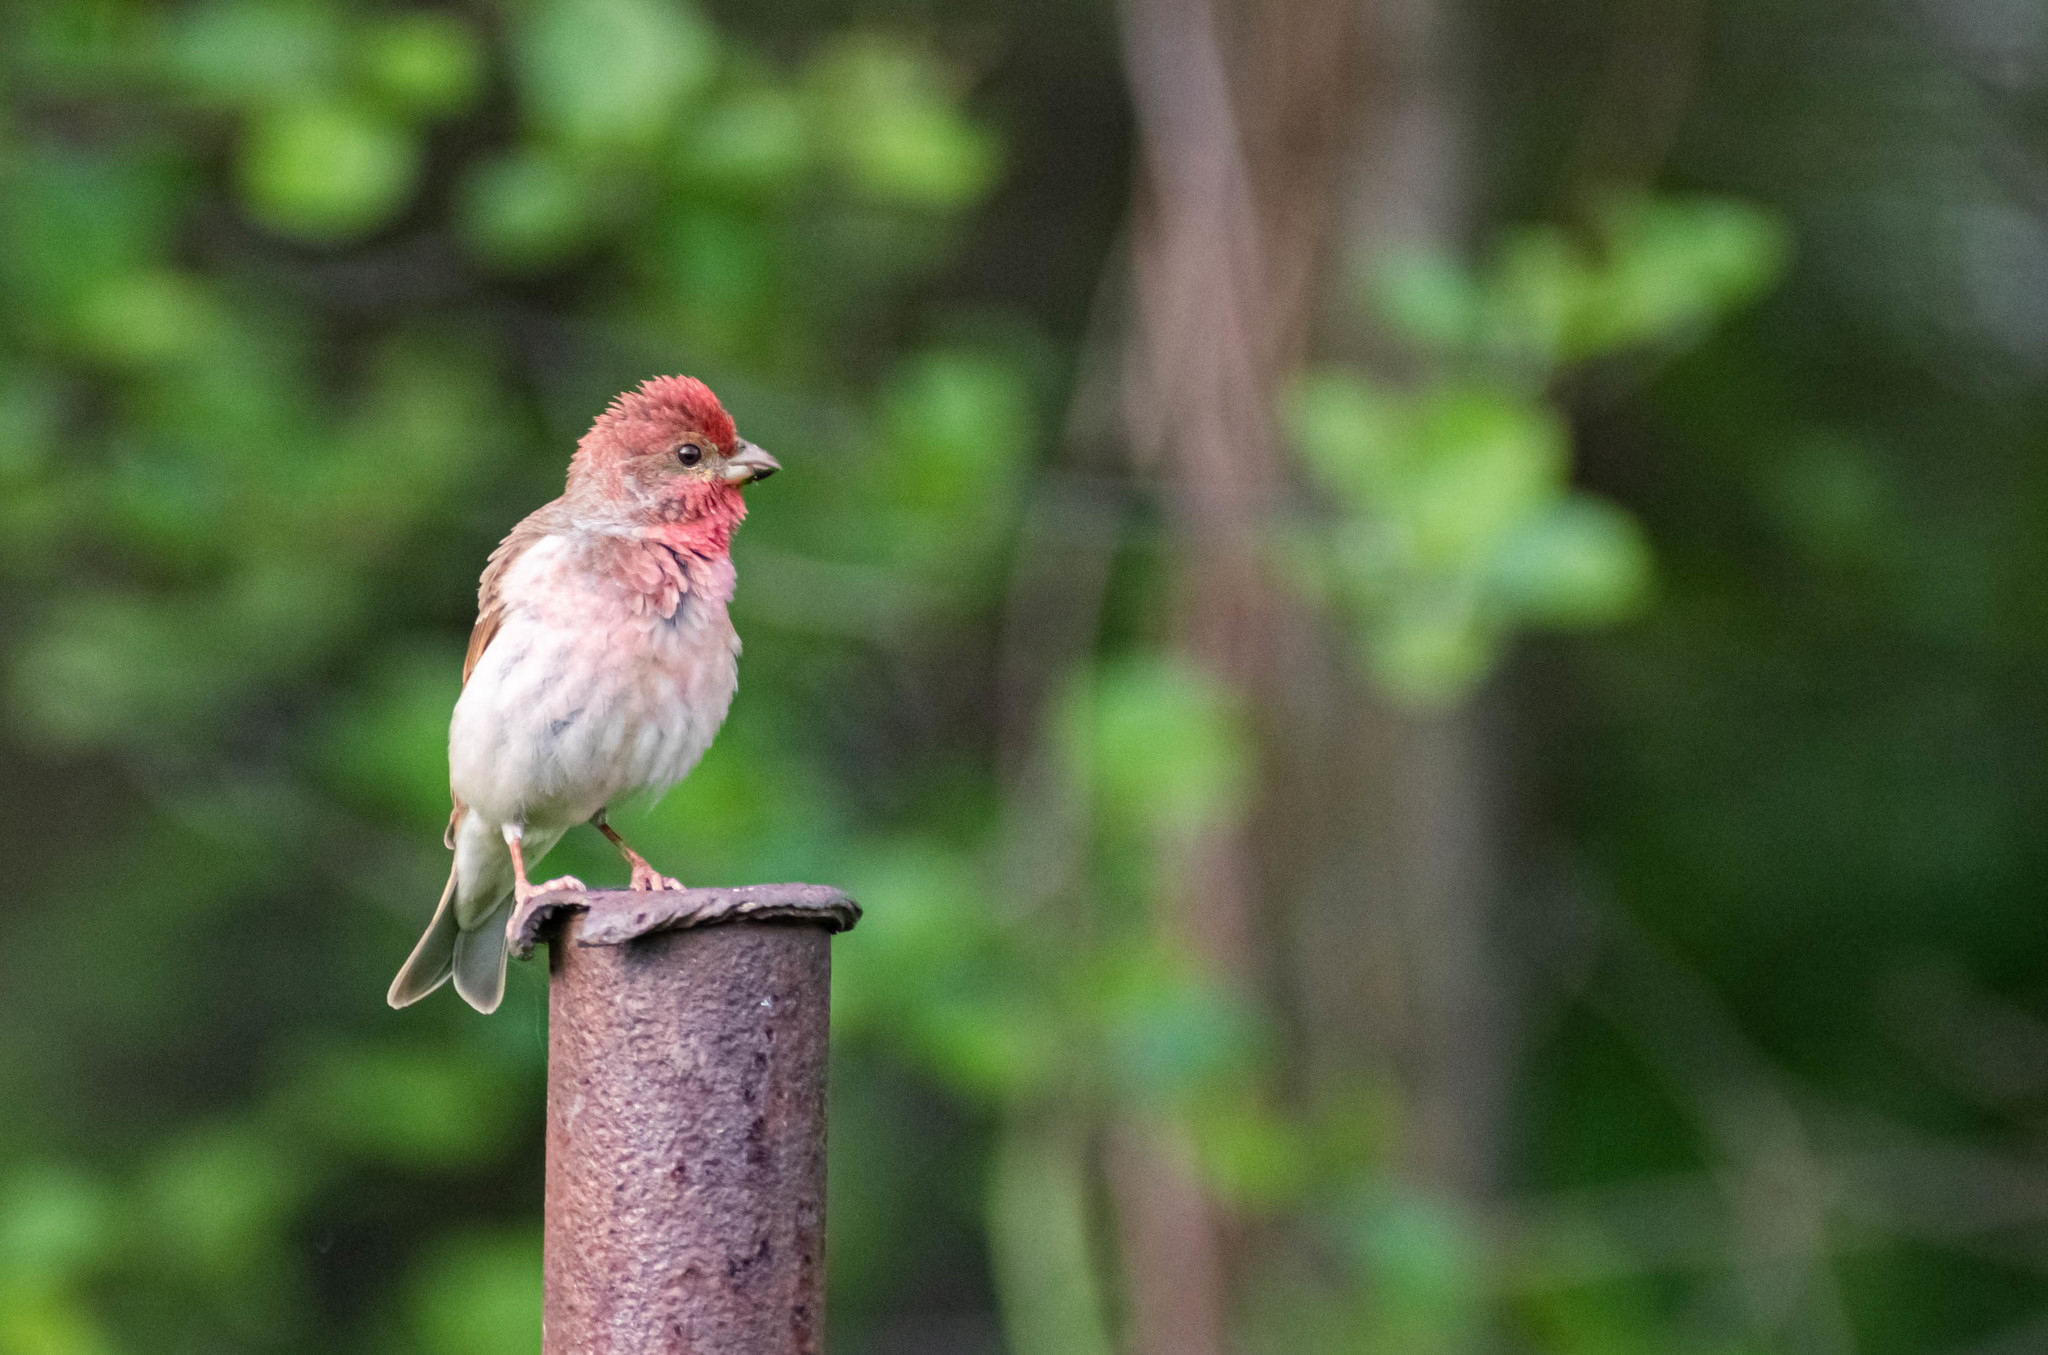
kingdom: Animalia
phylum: Chordata
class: Aves
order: Passeriformes
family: Fringillidae
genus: Carpodacus
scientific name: Carpodacus erythrinus
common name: Common rosefinch
